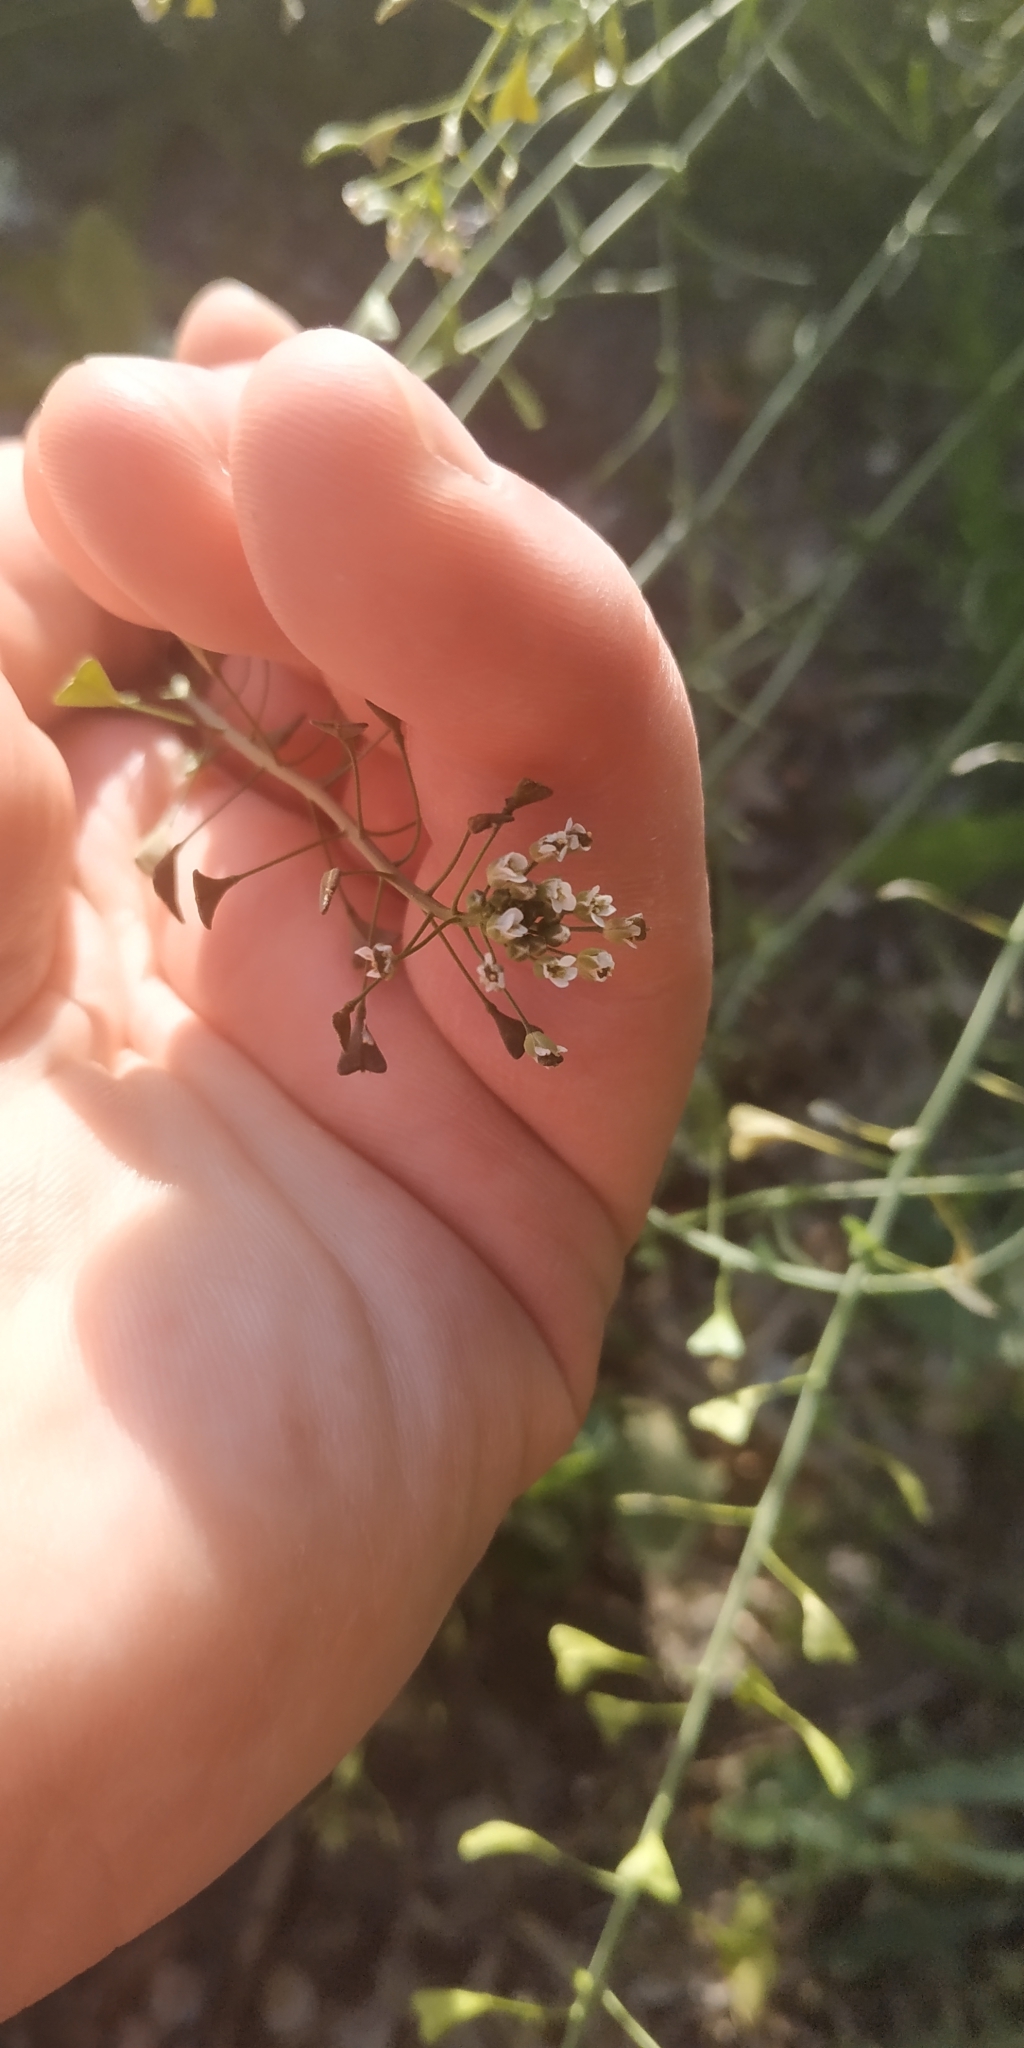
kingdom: Plantae
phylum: Tracheophyta
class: Magnoliopsida
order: Brassicales
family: Brassicaceae
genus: Capsella
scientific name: Capsella bursa-pastoris
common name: Shepherd's purse
